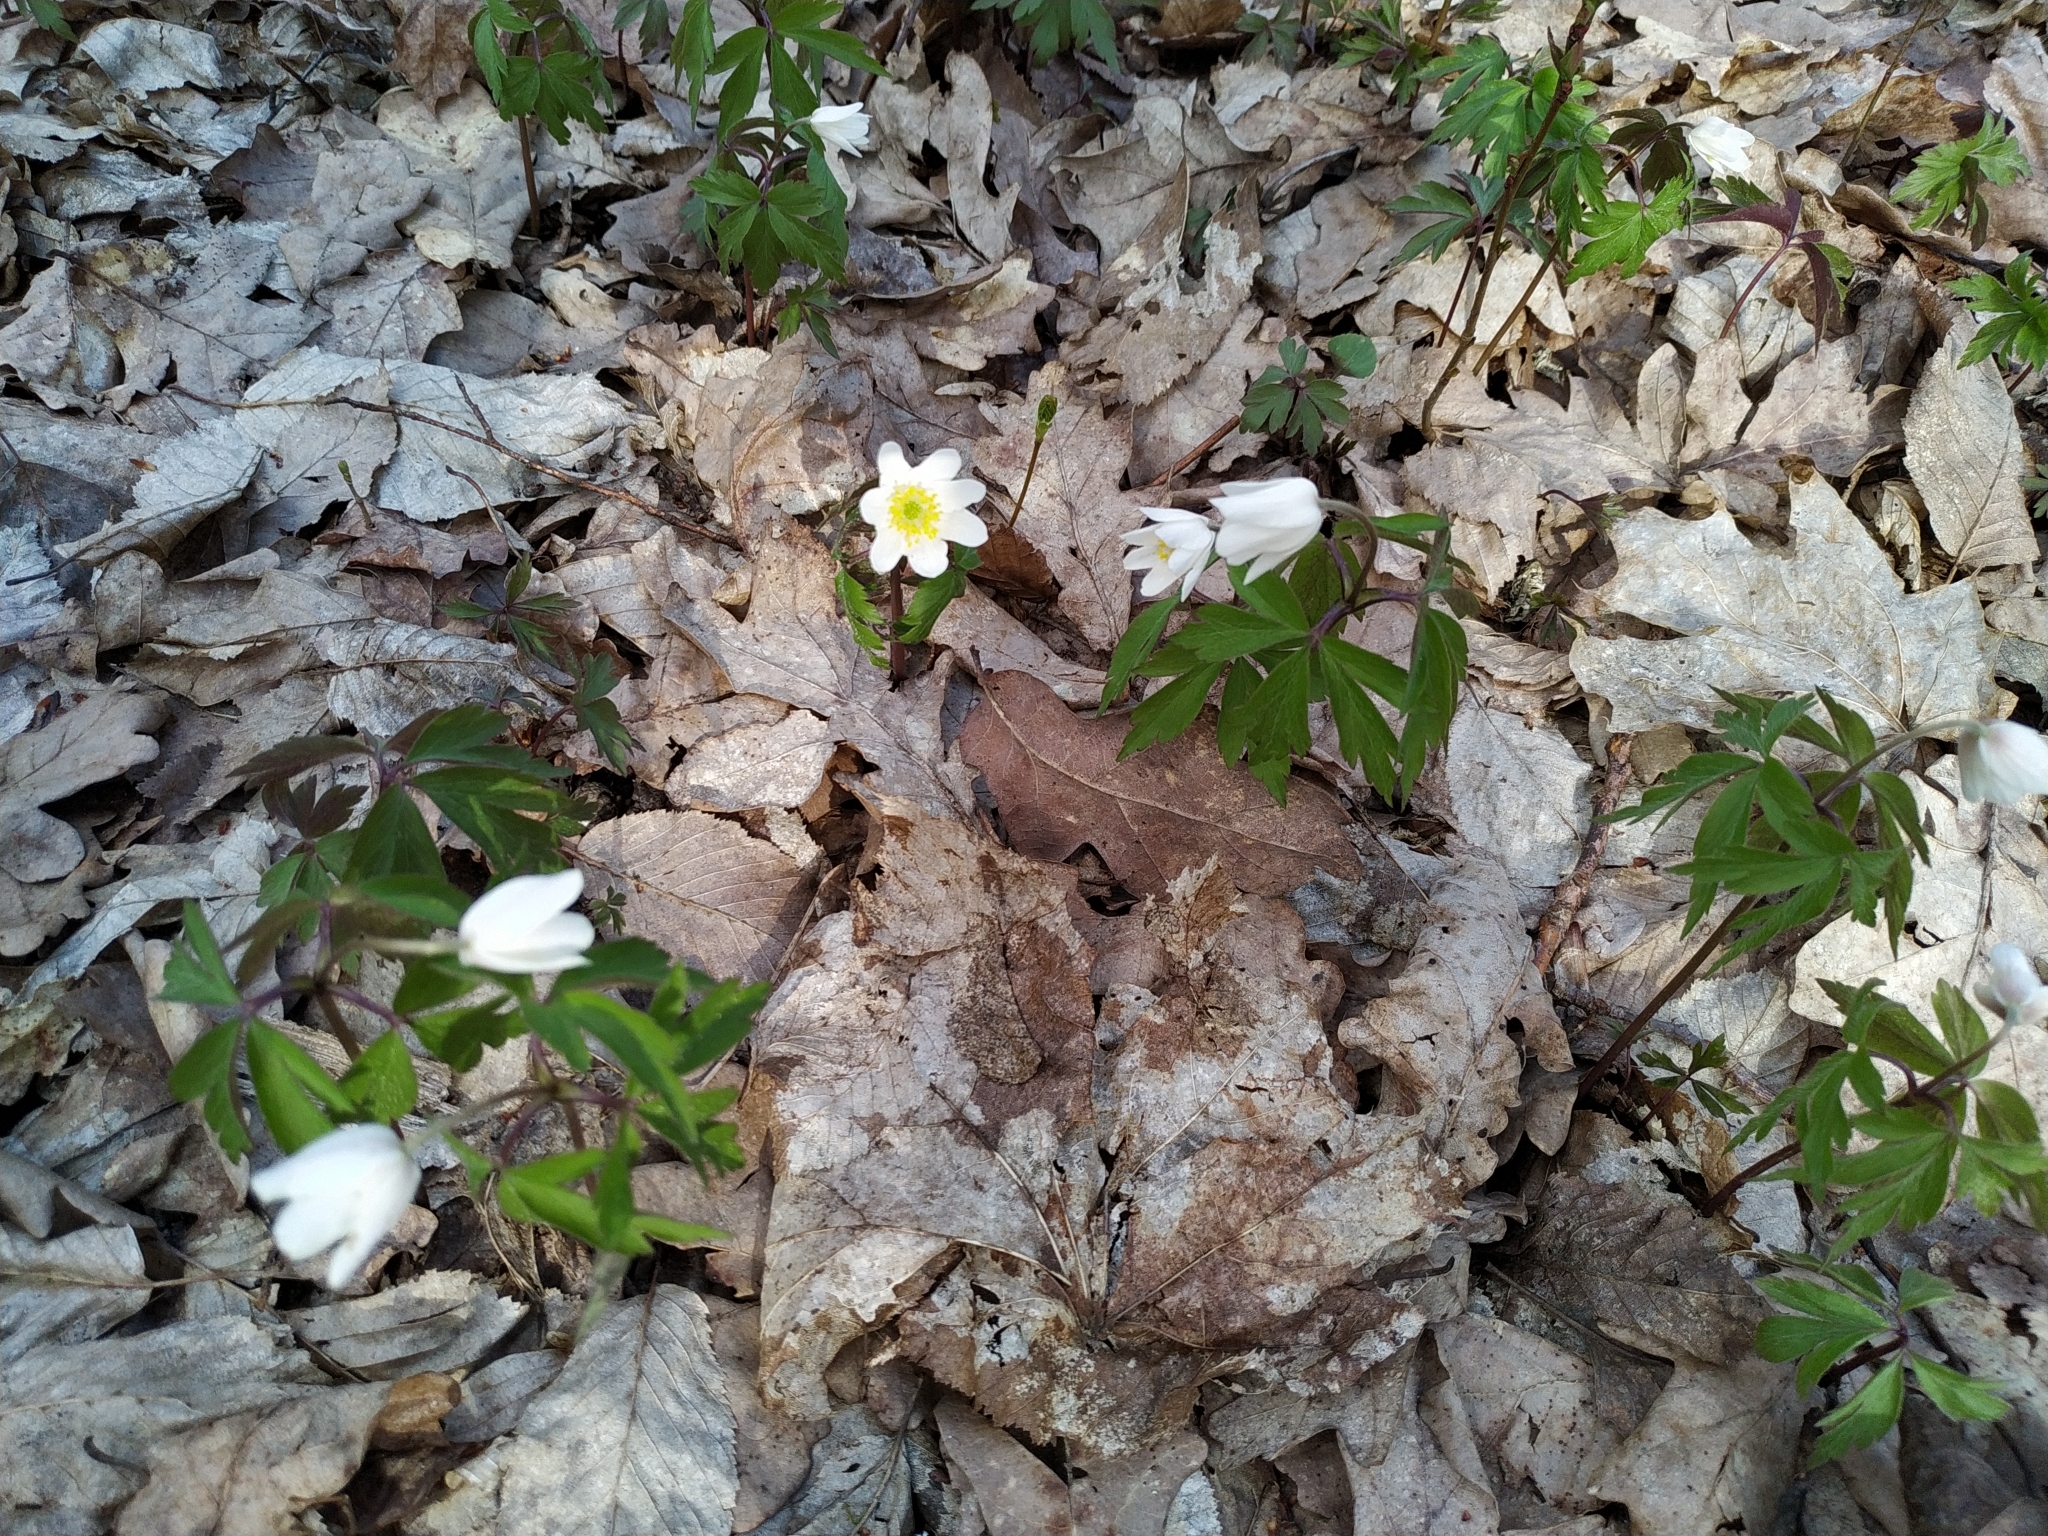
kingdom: Plantae
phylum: Tracheophyta
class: Magnoliopsida
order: Ranunculales
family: Ranunculaceae
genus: Anemone
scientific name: Anemone nemorosa
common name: Wood anemone
